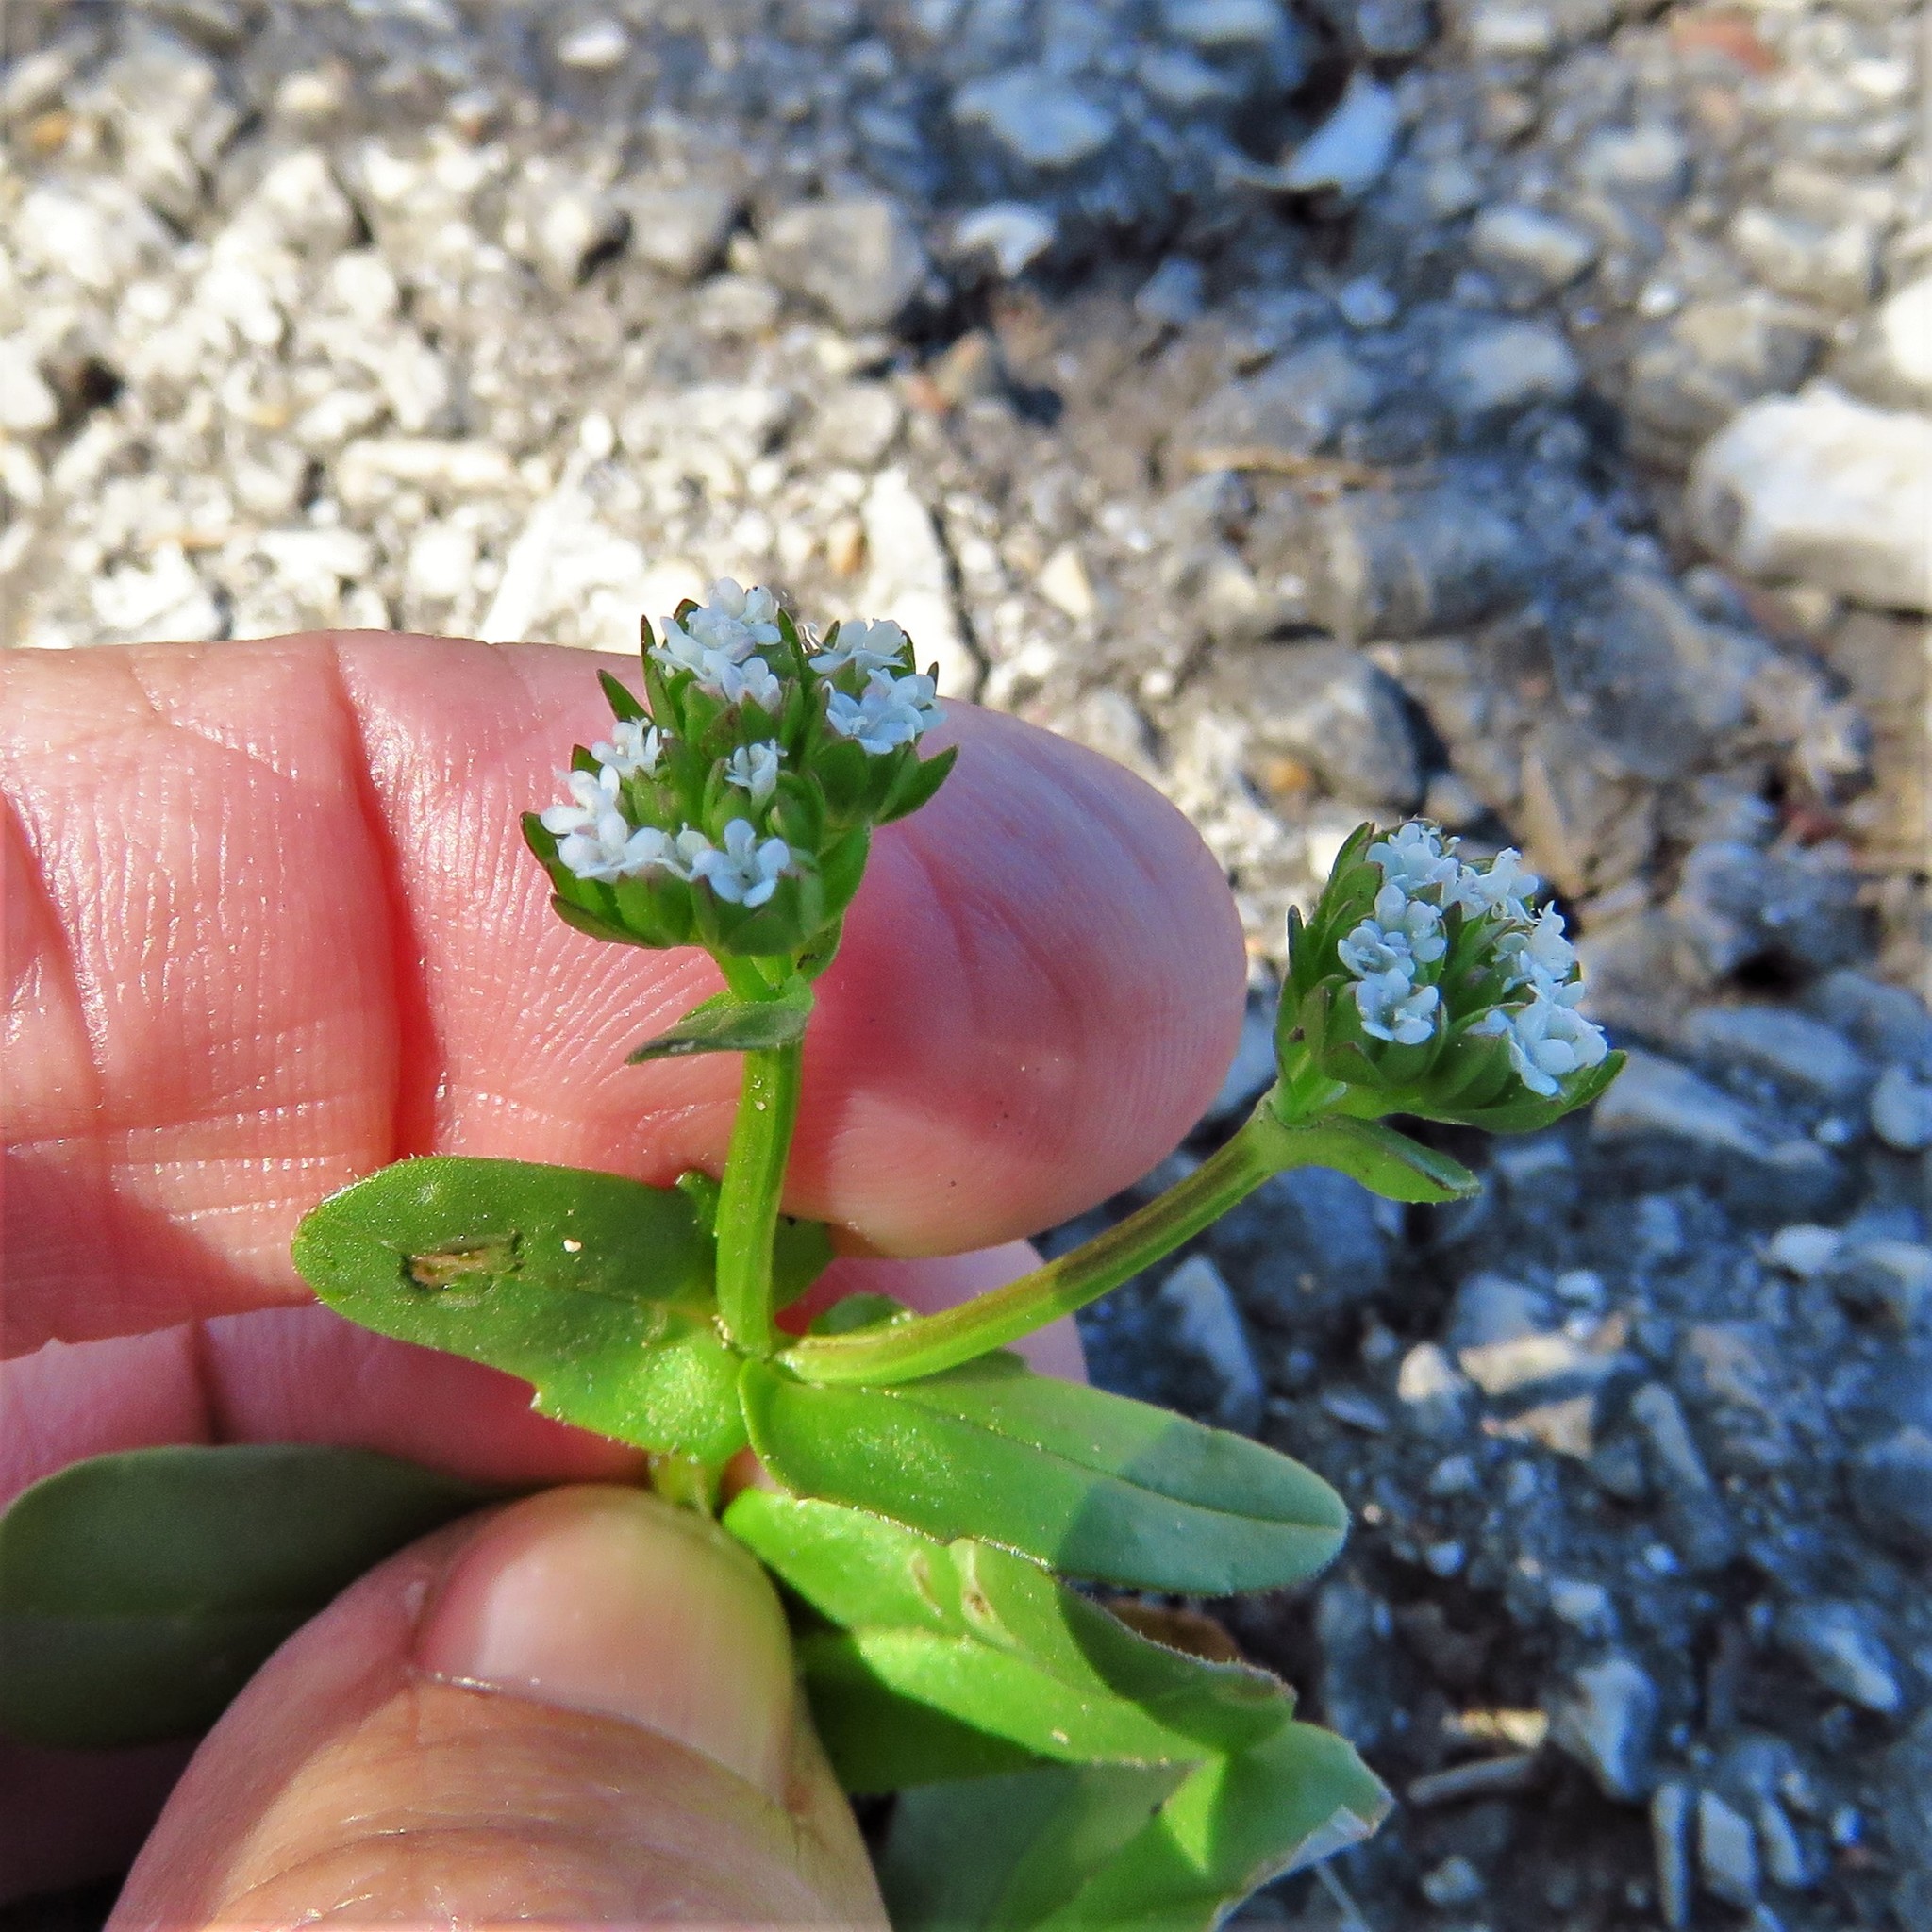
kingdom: Plantae
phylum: Tracheophyta
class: Magnoliopsida
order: Dipsacales
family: Caprifoliaceae
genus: Valerianella
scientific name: Valerianella radiata
